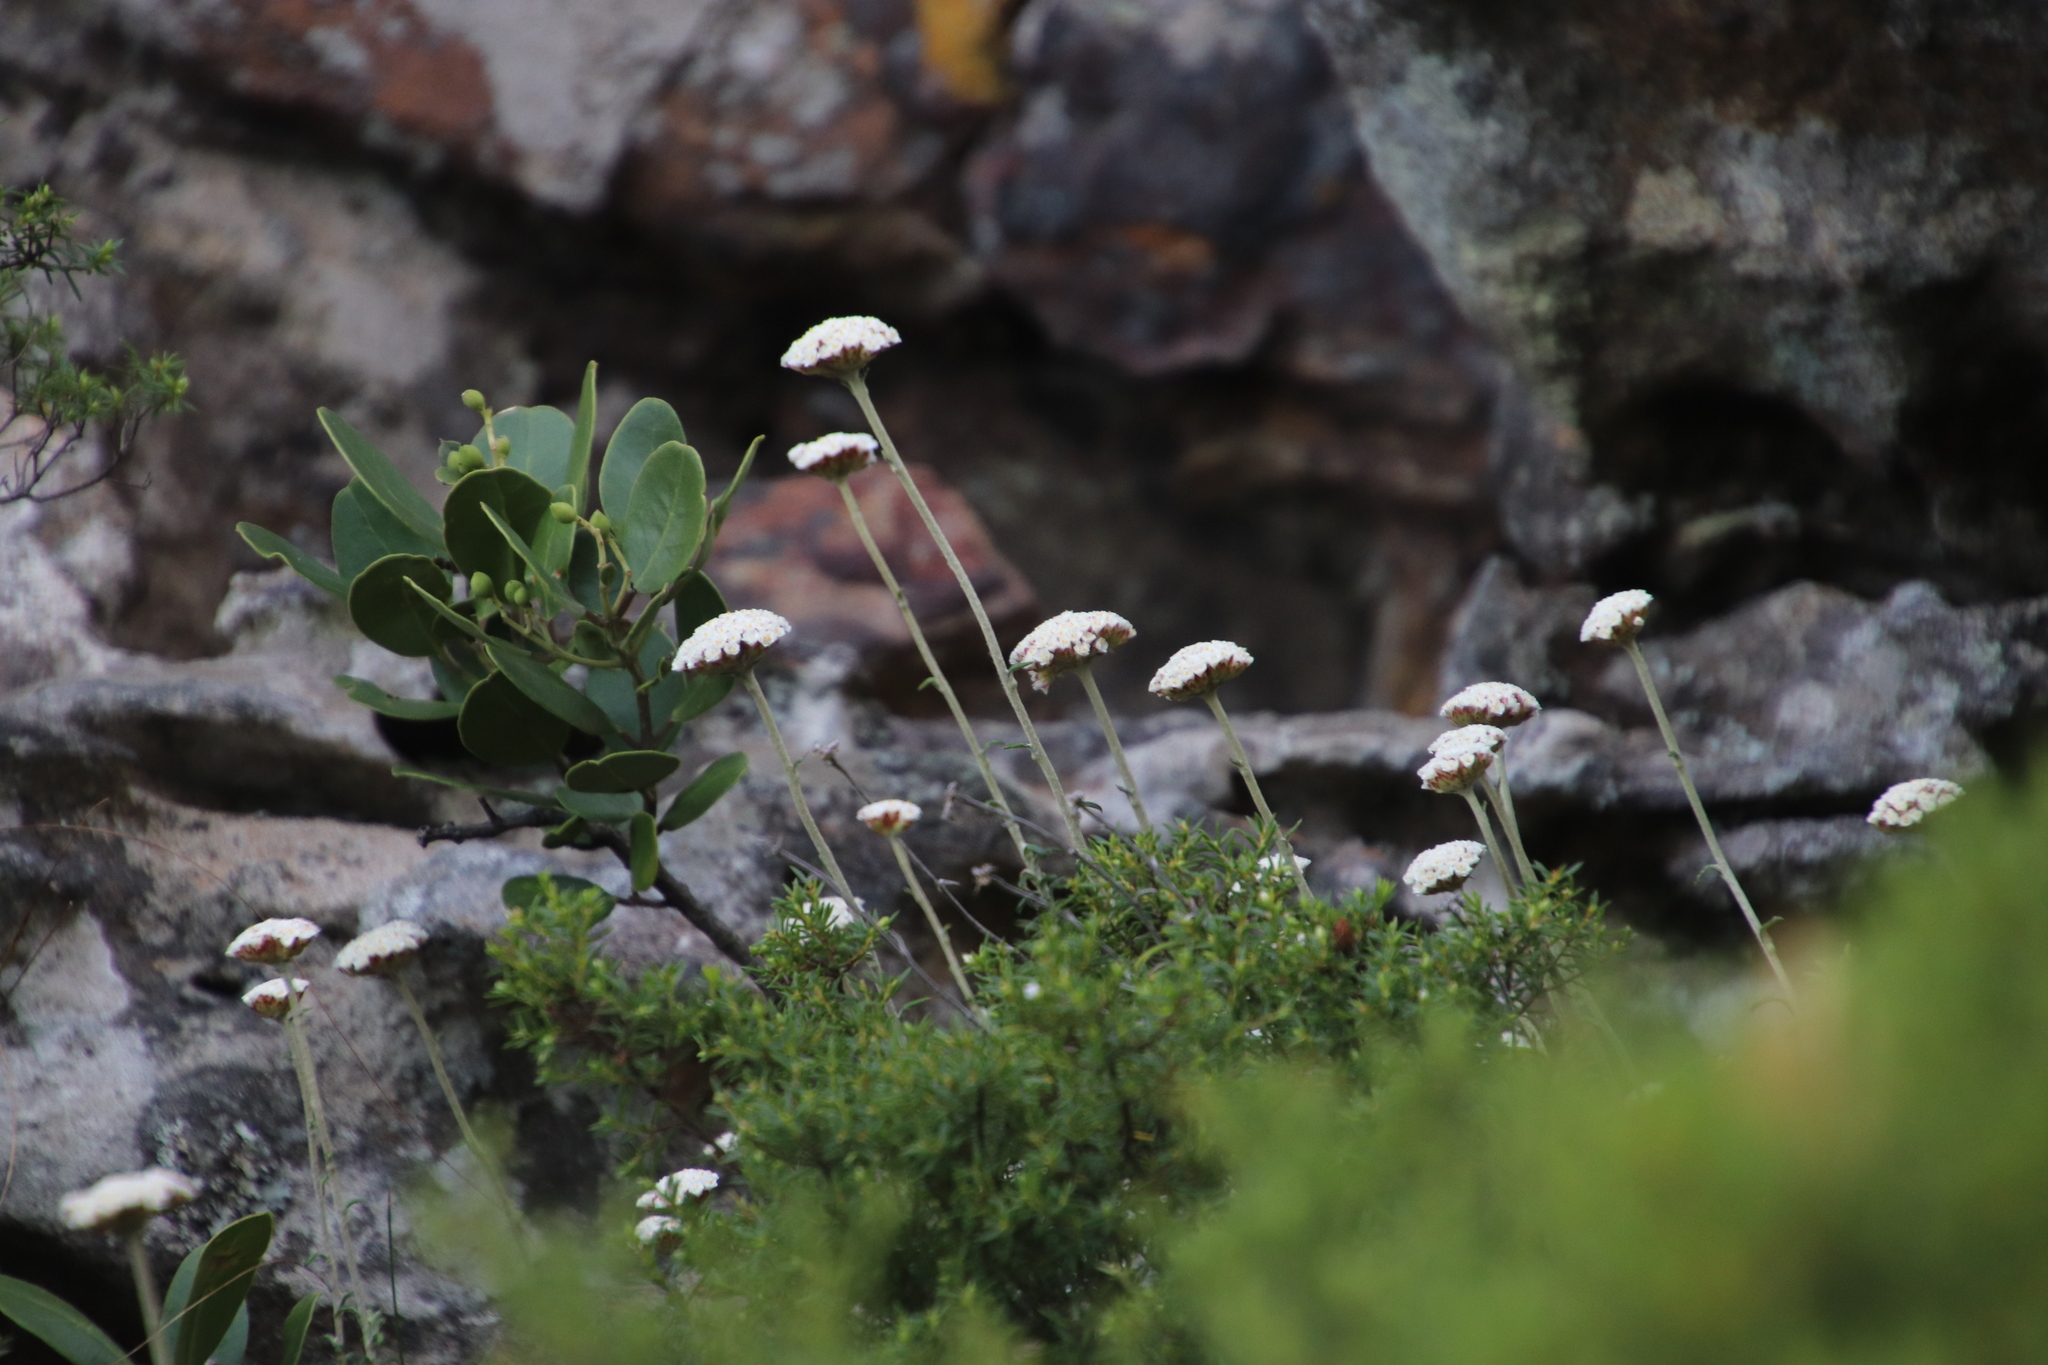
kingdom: Plantae
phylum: Tracheophyta
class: Magnoliopsida
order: Asterales
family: Asteraceae
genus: Anaxeton
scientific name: Anaxeton arborescens
